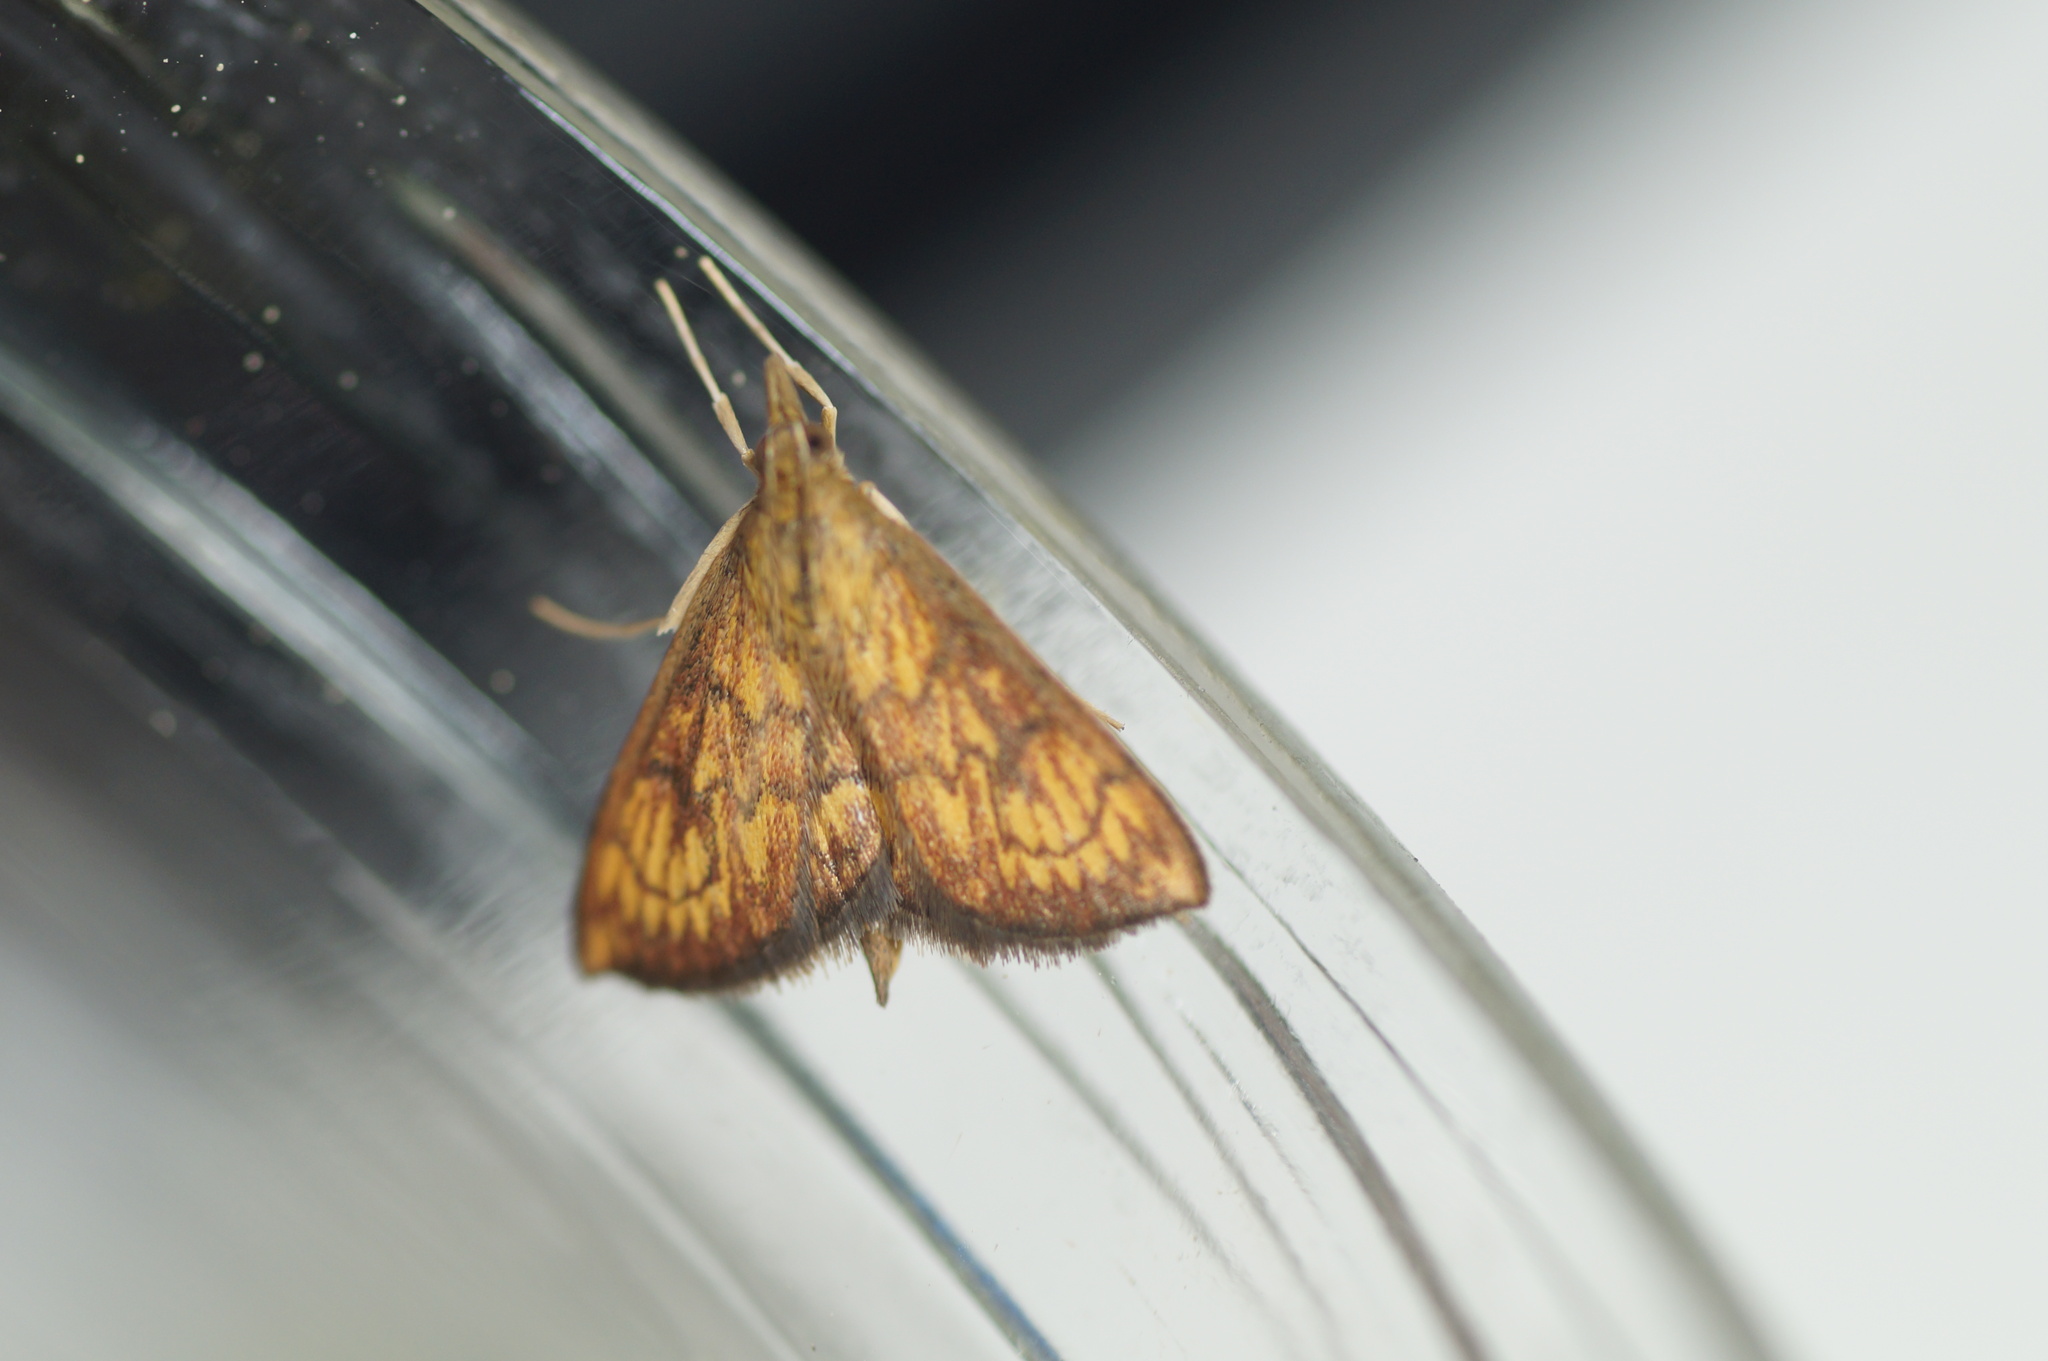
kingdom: Animalia
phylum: Arthropoda
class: Insecta
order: Lepidoptera
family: Crambidae
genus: Ecpyrrhorrhoe
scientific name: Ecpyrrhorrhoe rubiginalis
